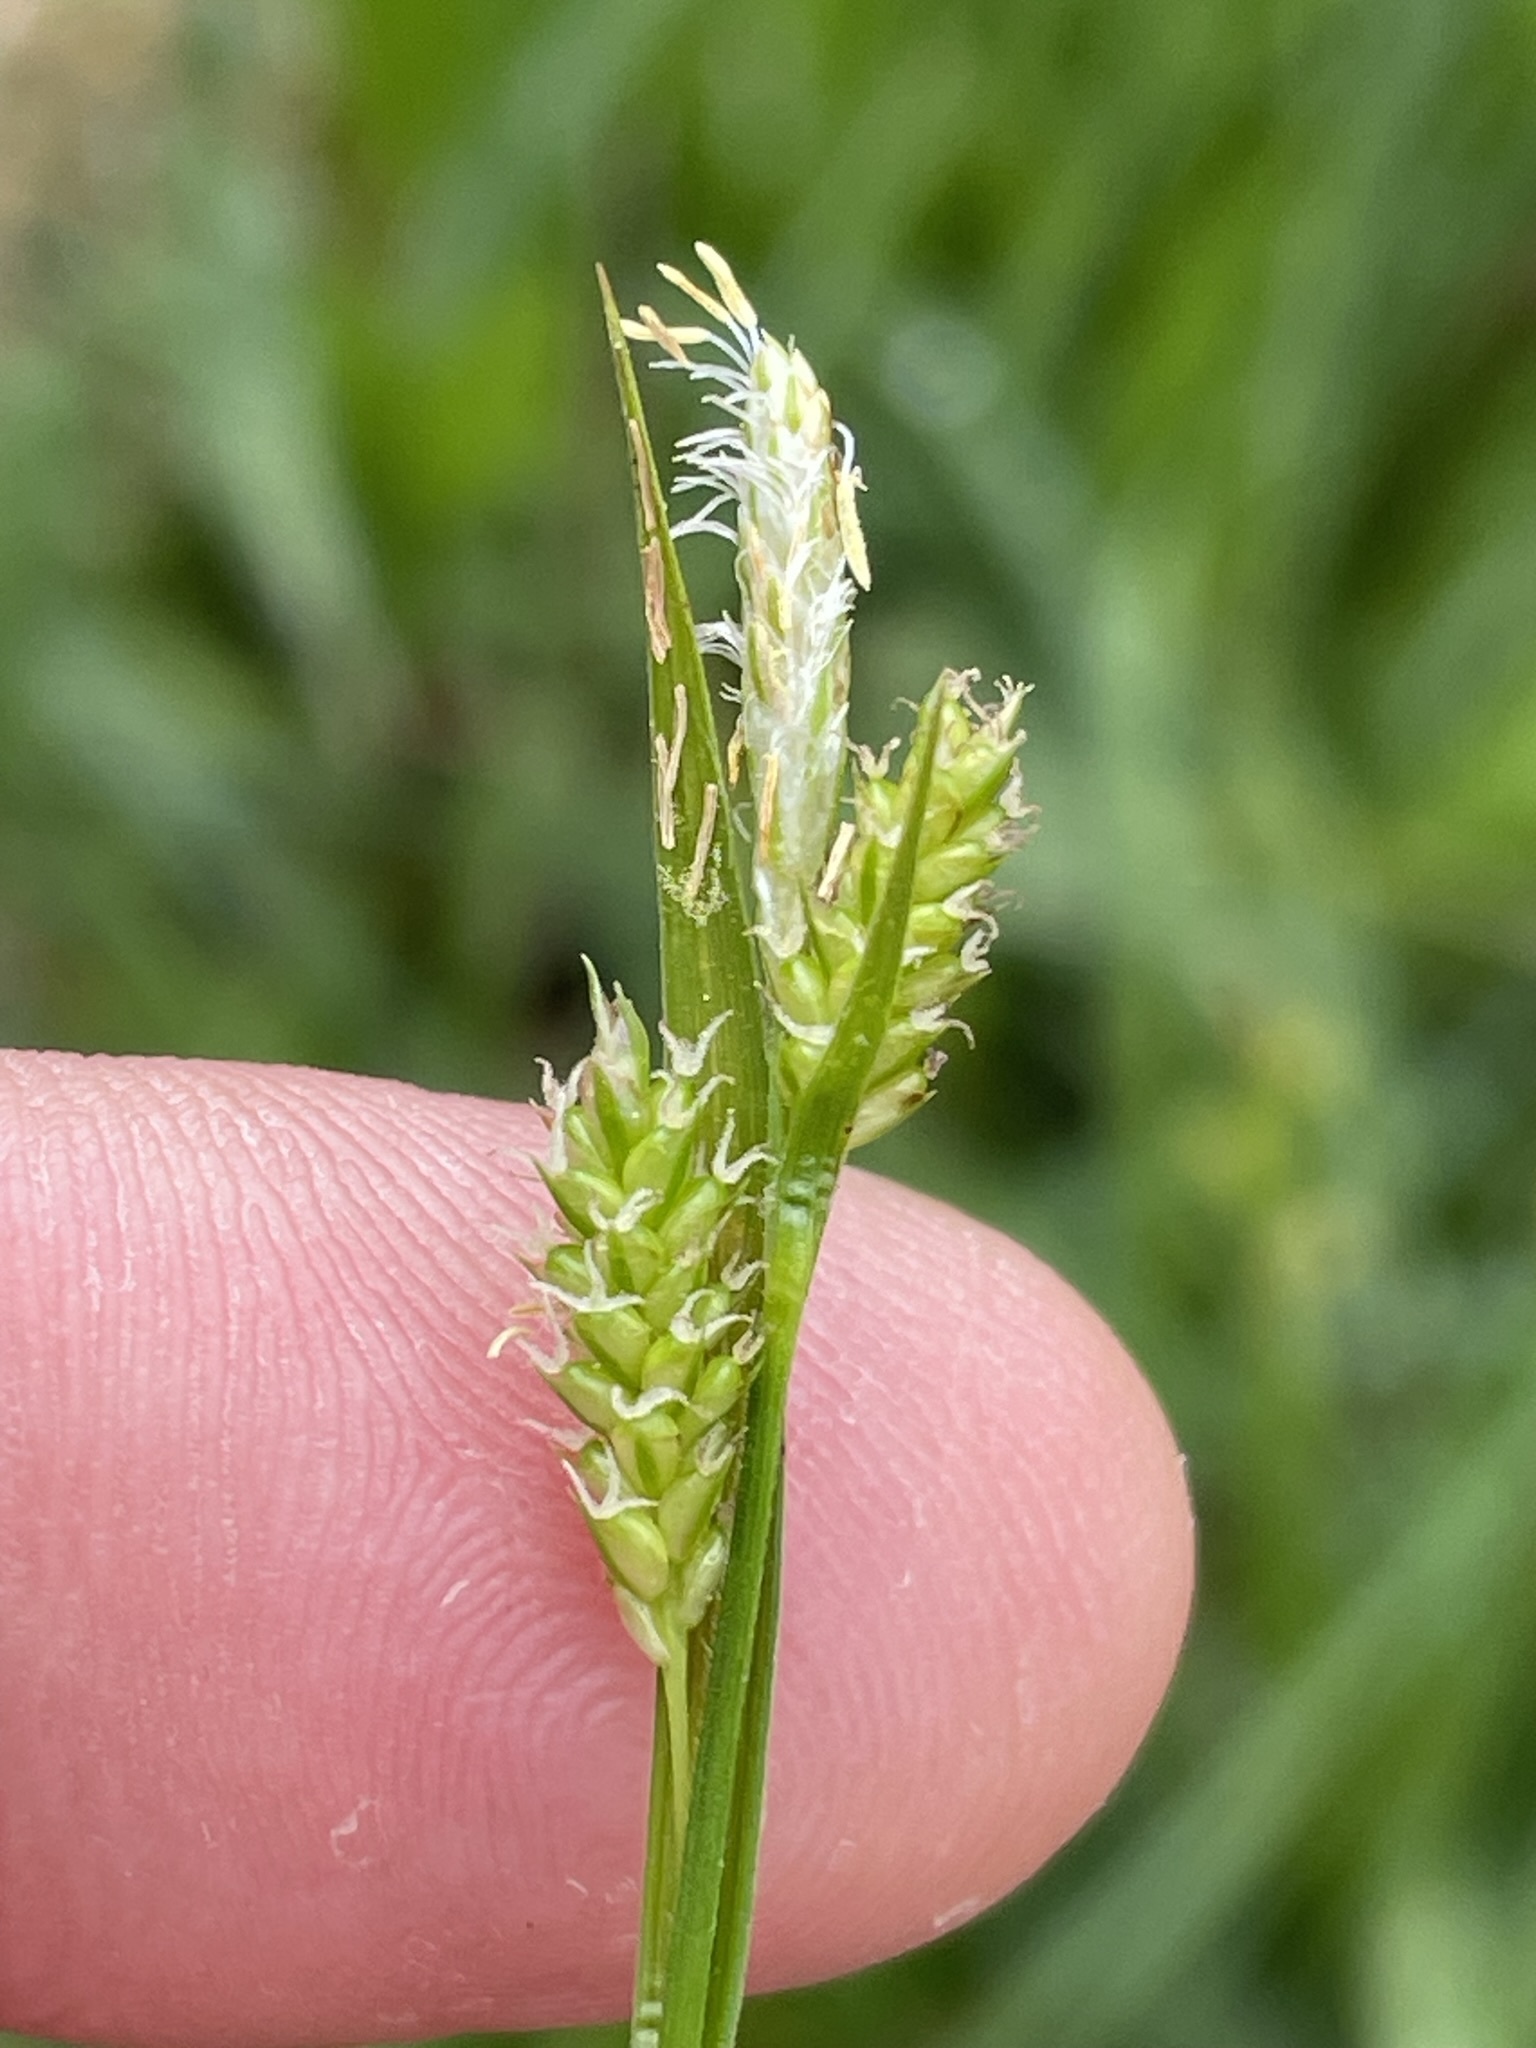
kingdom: Plantae
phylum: Tracheophyta
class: Liliopsida
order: Poales
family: Cyperaceae
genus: Carex
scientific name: Carex pallescens
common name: Pale sedge
